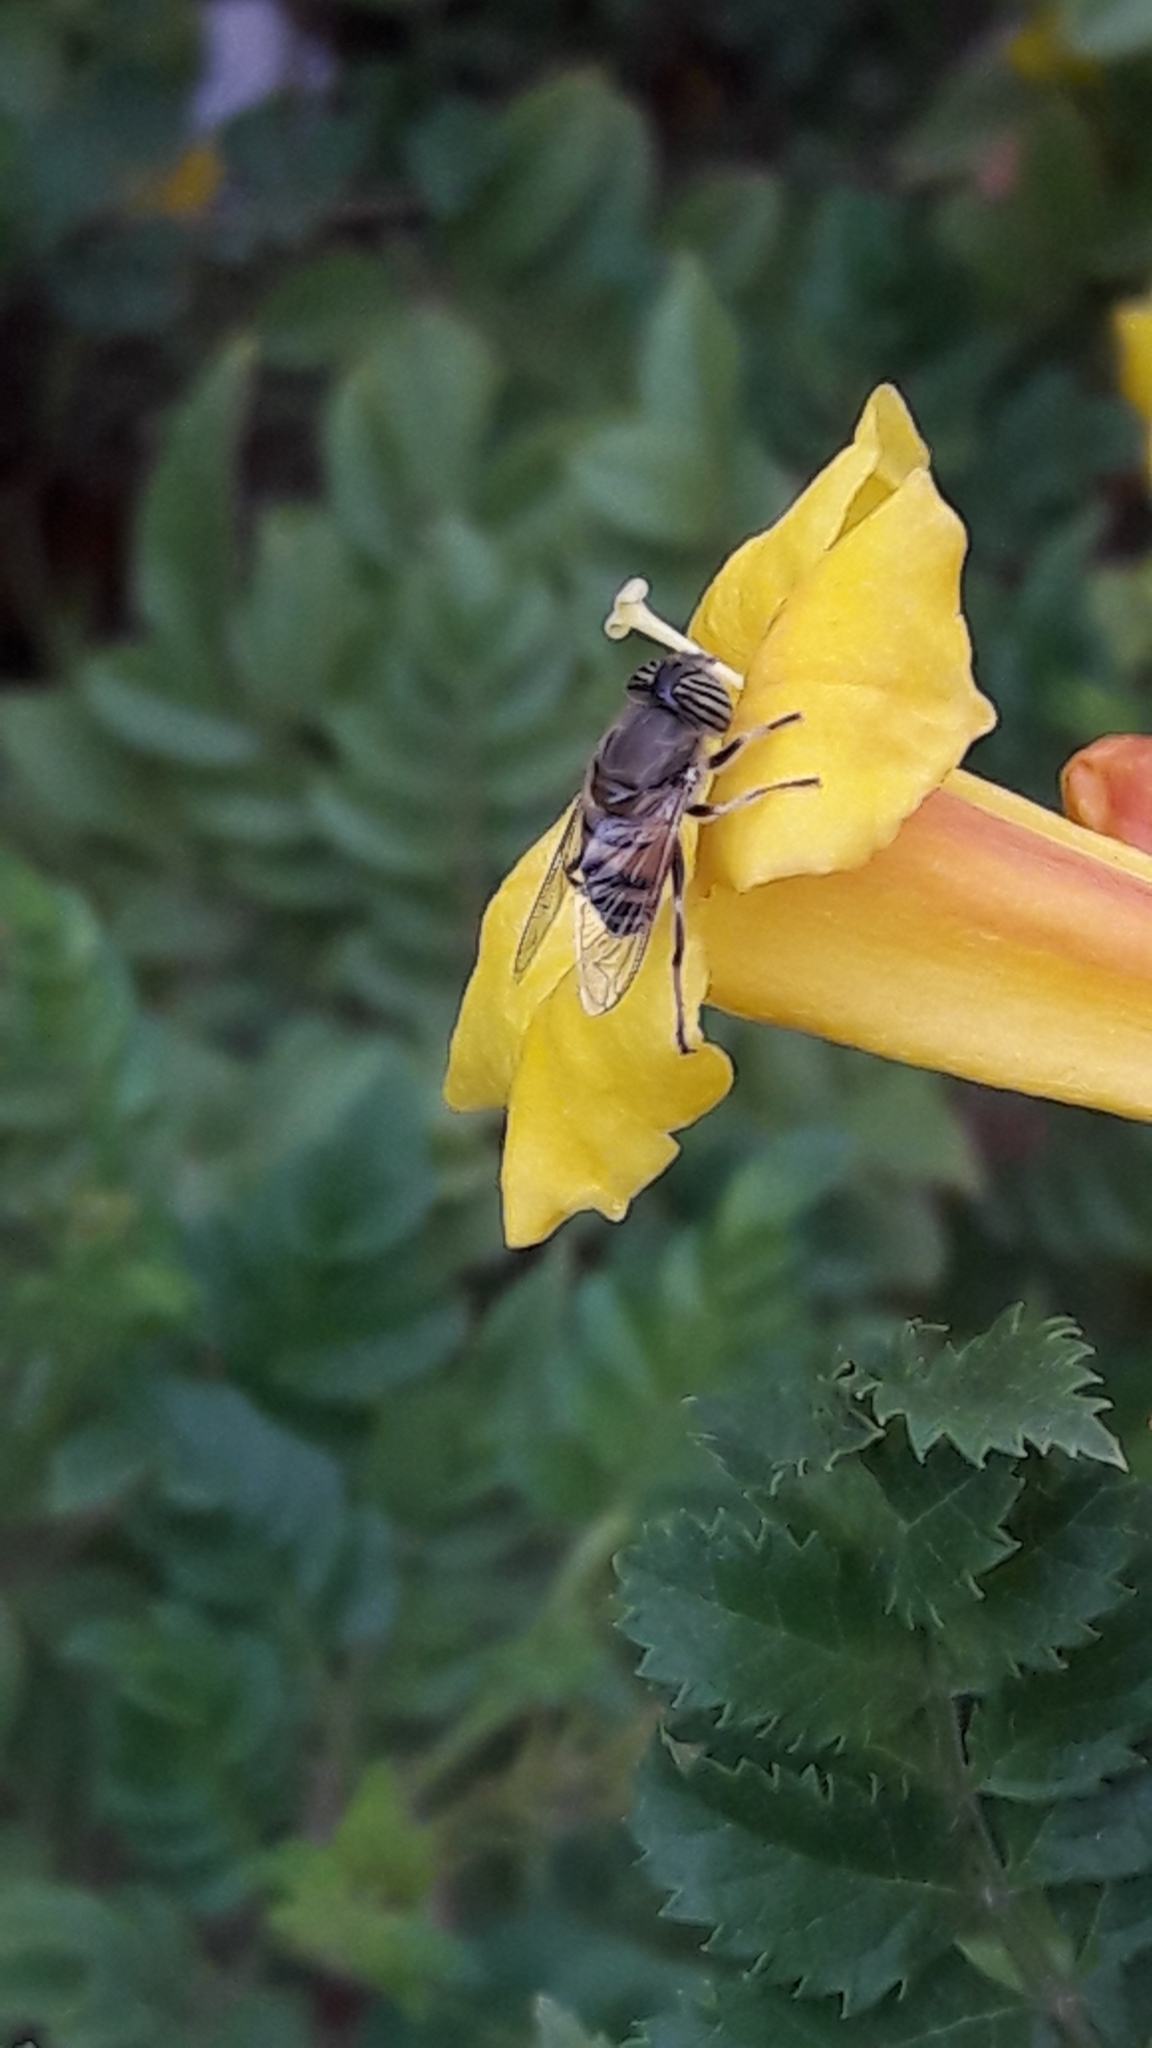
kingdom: Animalia
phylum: Arthropoda
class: Insecta
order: Diptera
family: Syrphidae
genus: Eristalinus
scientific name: Eristalinus taeniops
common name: Syrphid fly
